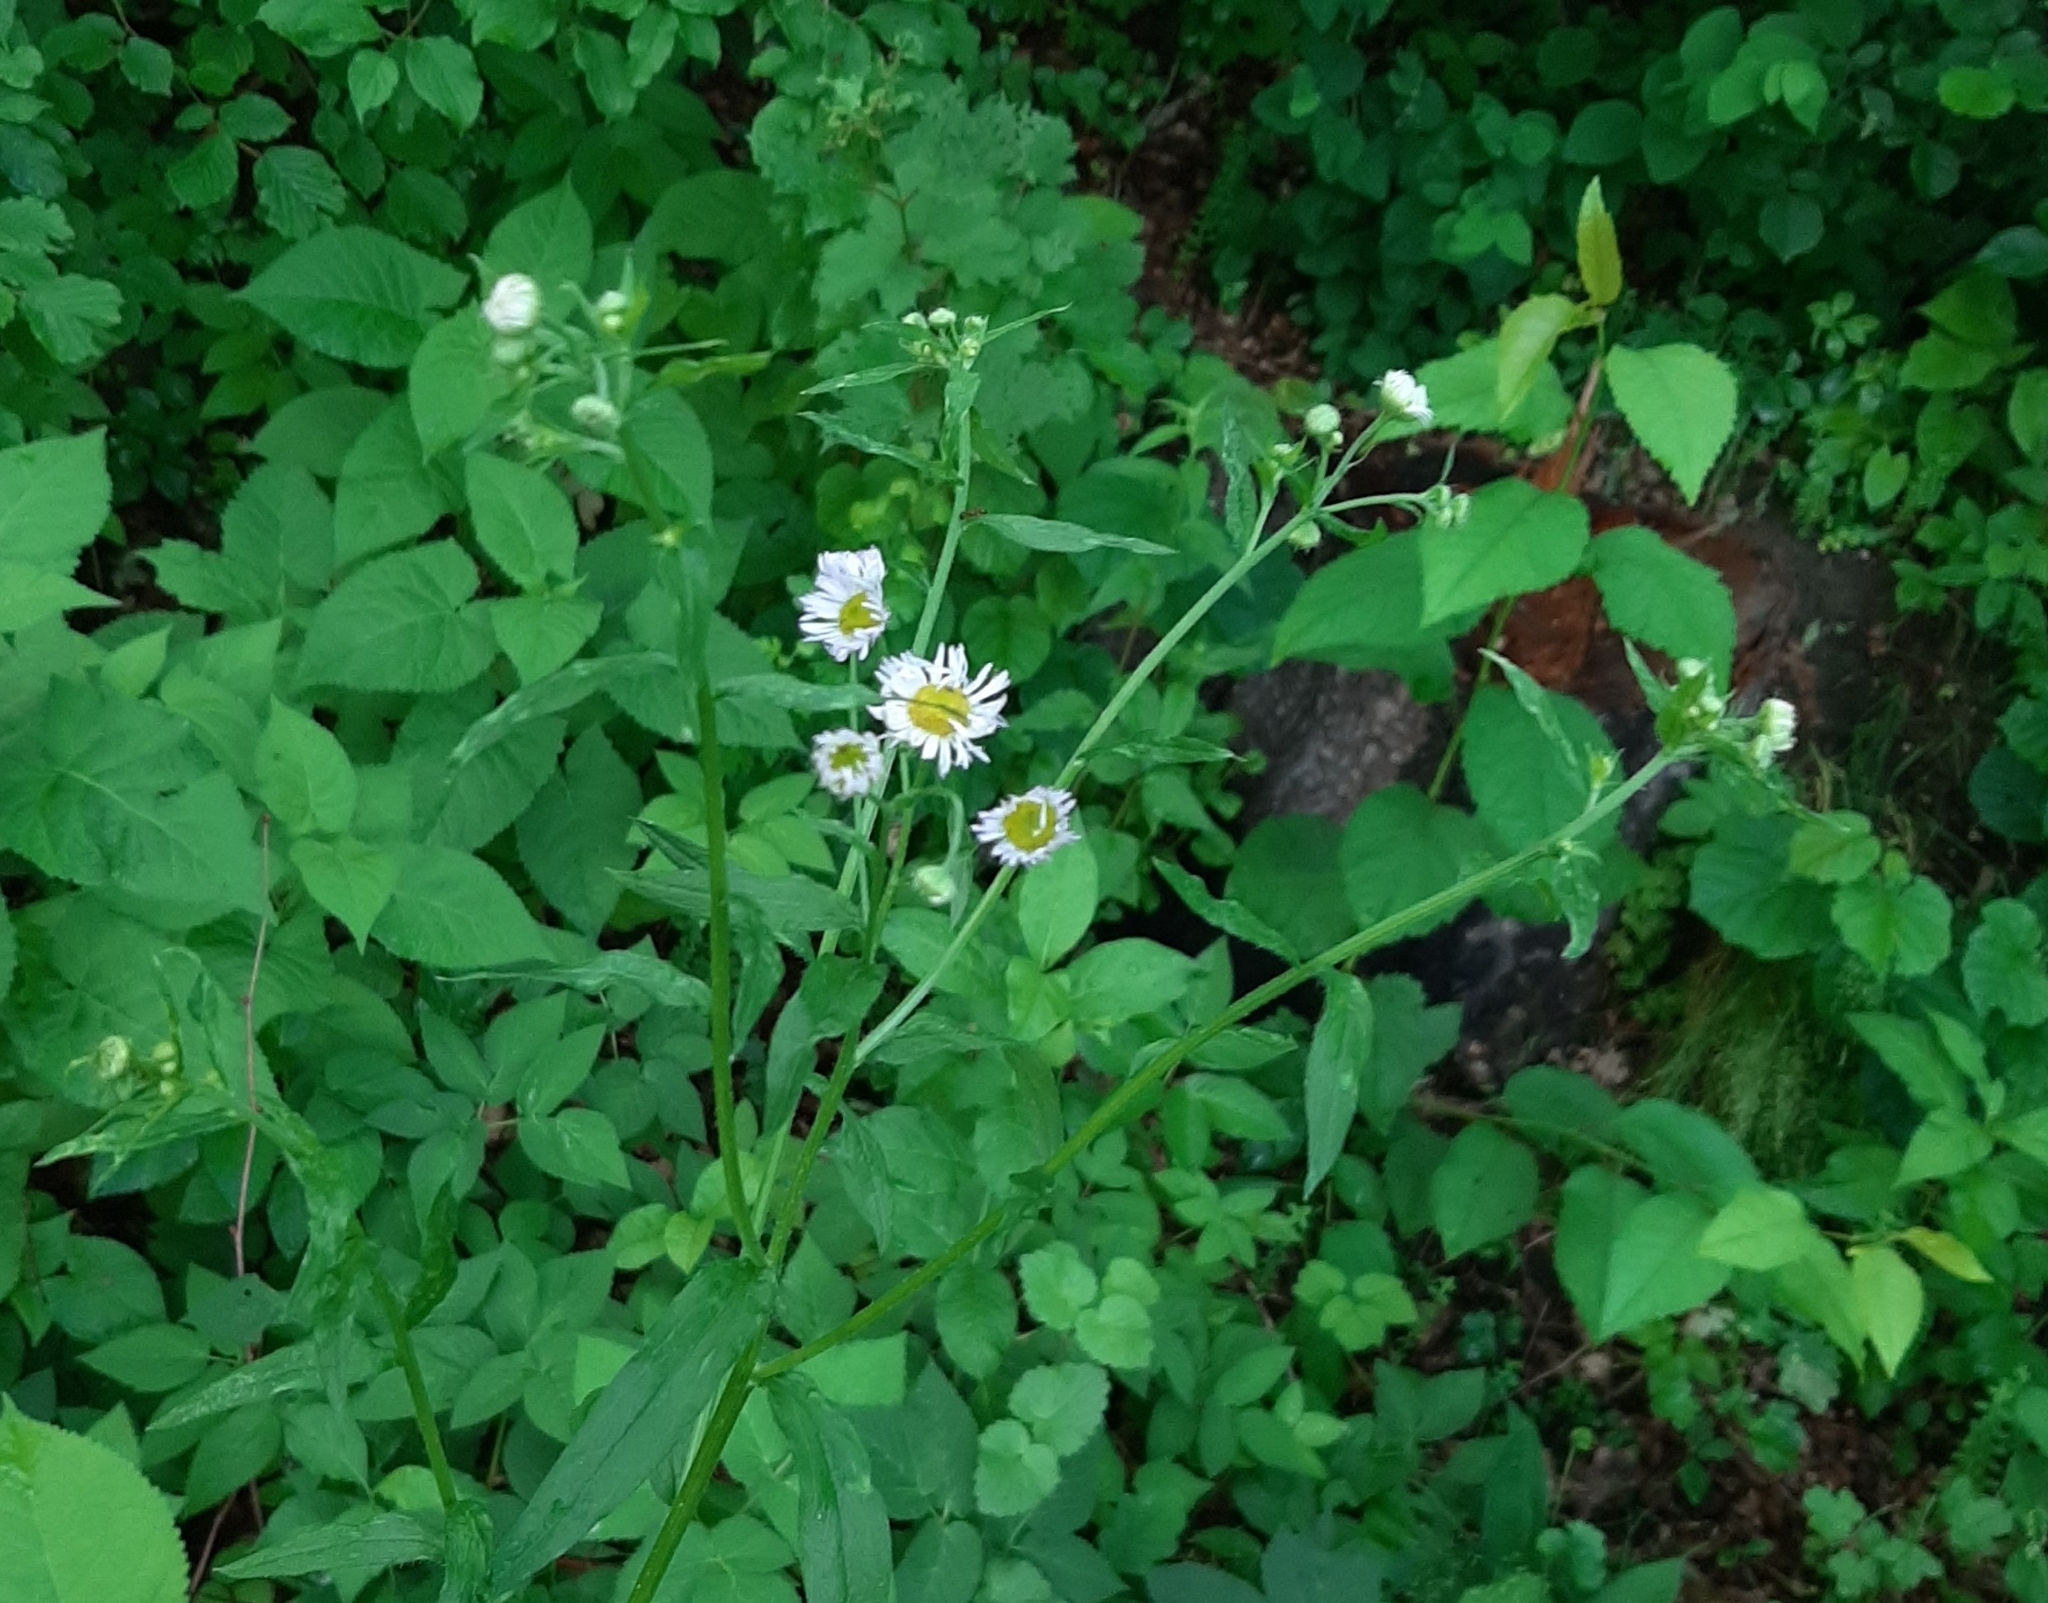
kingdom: Plantae
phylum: Tracheophyta
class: Magnoliopsida
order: Asterales
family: Asteraceae
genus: Erigeron
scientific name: Erigeron annuus
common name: Tall fleabane
